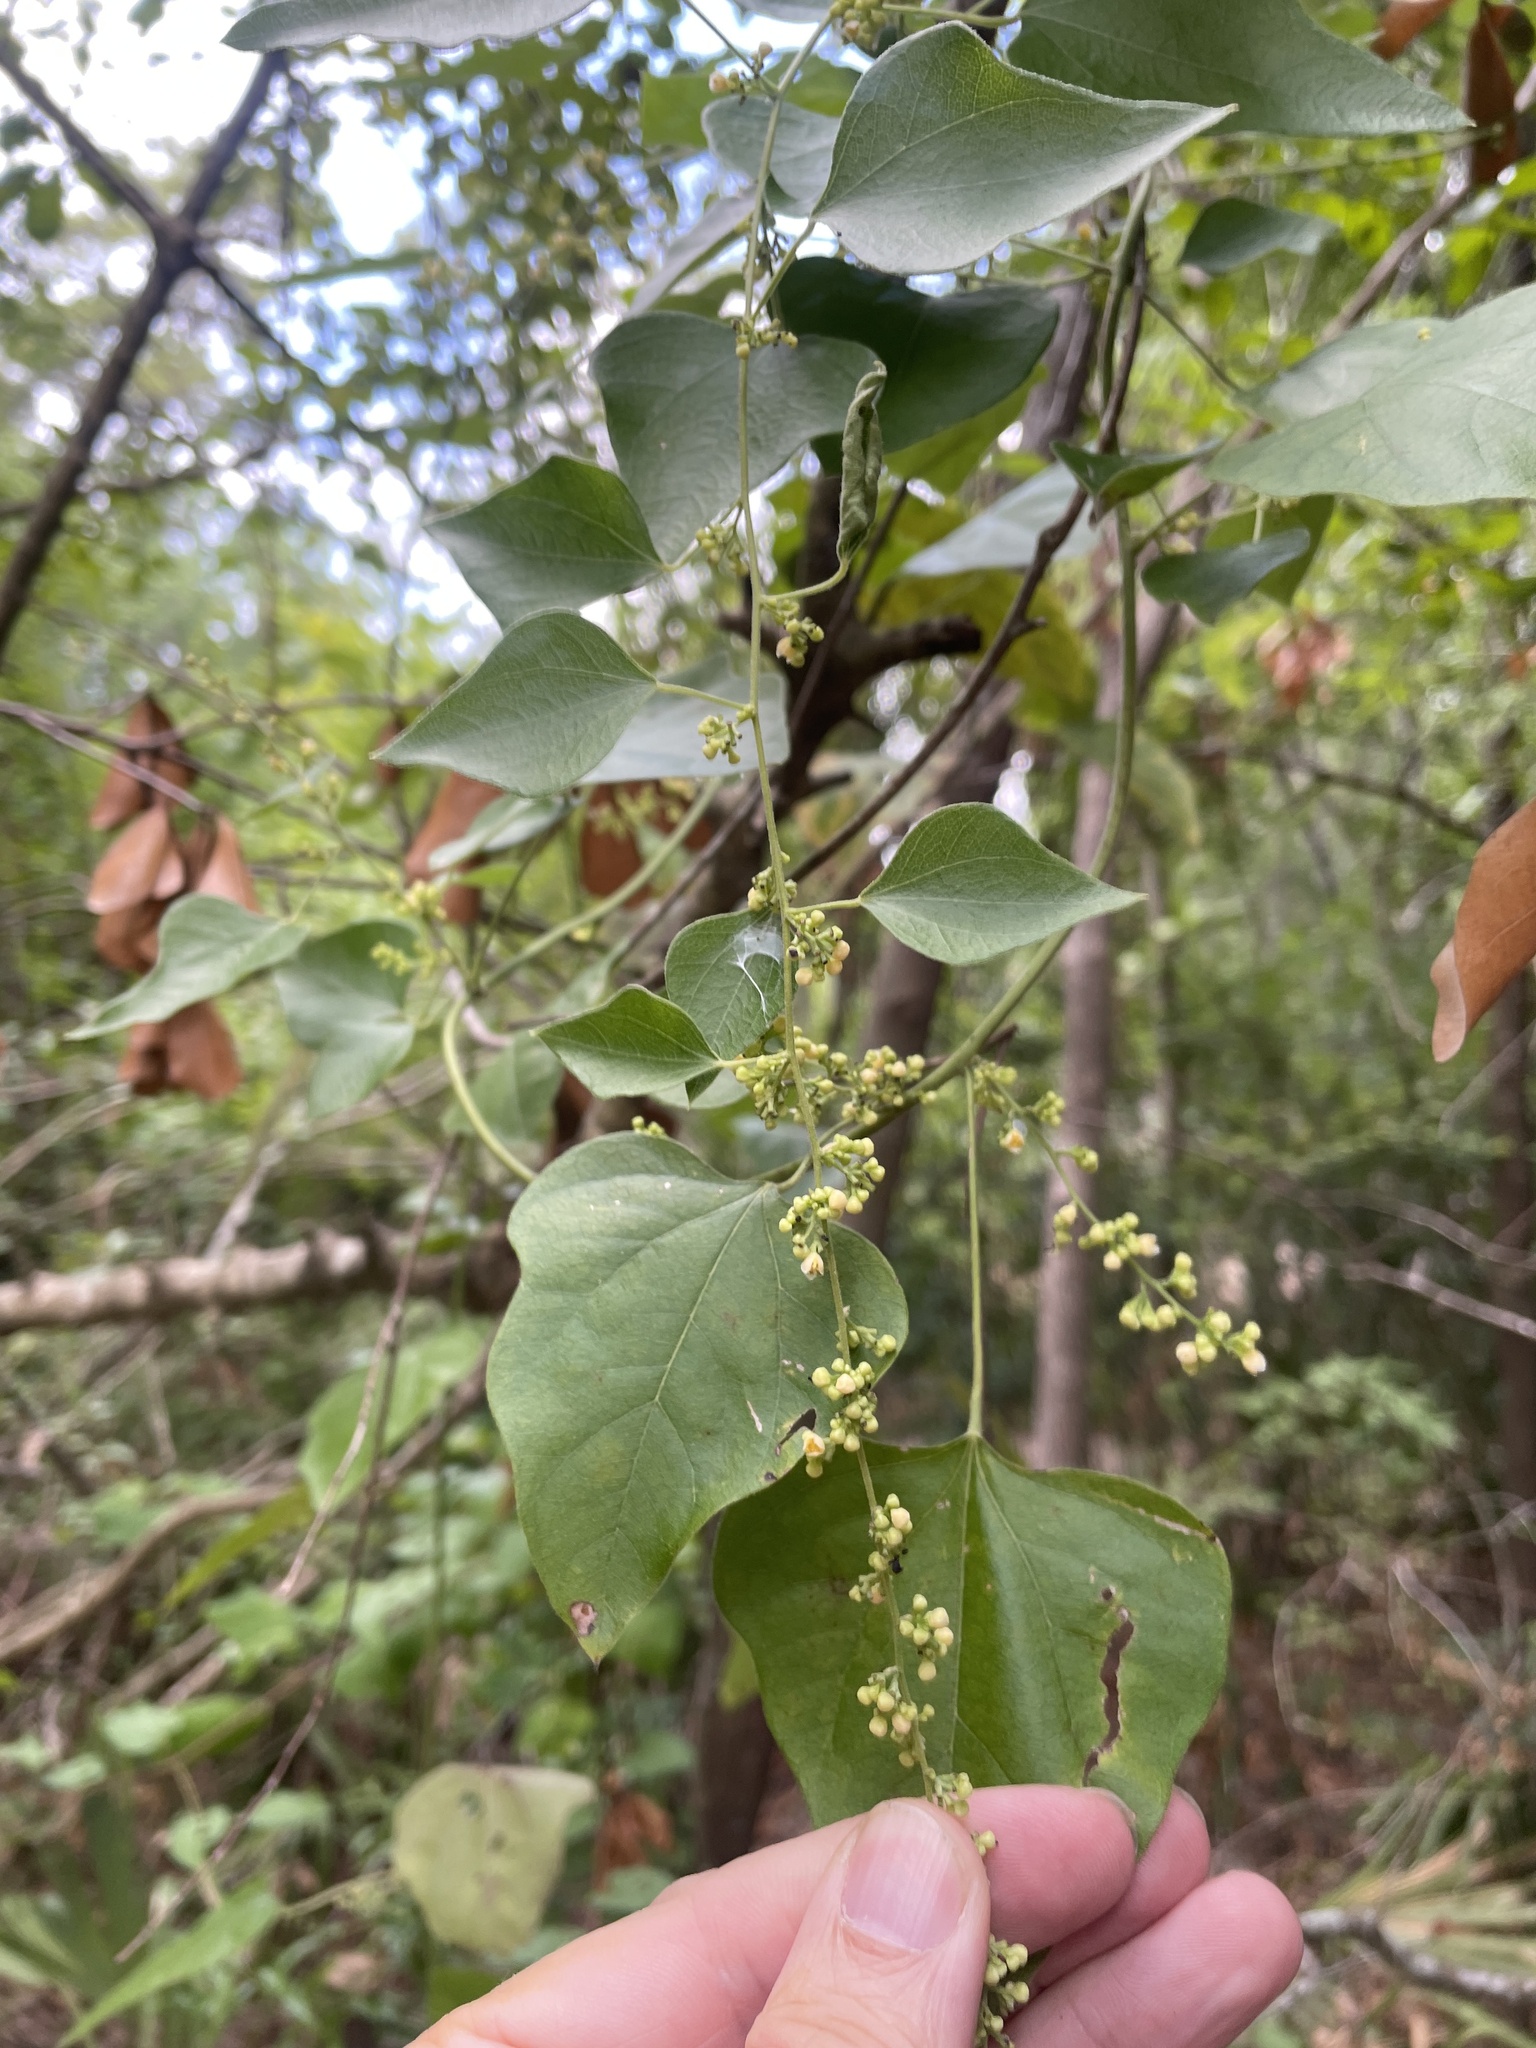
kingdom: Plantae
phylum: Tracheophyta
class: Magnoliopsida
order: Ranunculales
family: Menispermaceae
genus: Cocculus
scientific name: Cocculus carolinus
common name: Carolina moonseed
